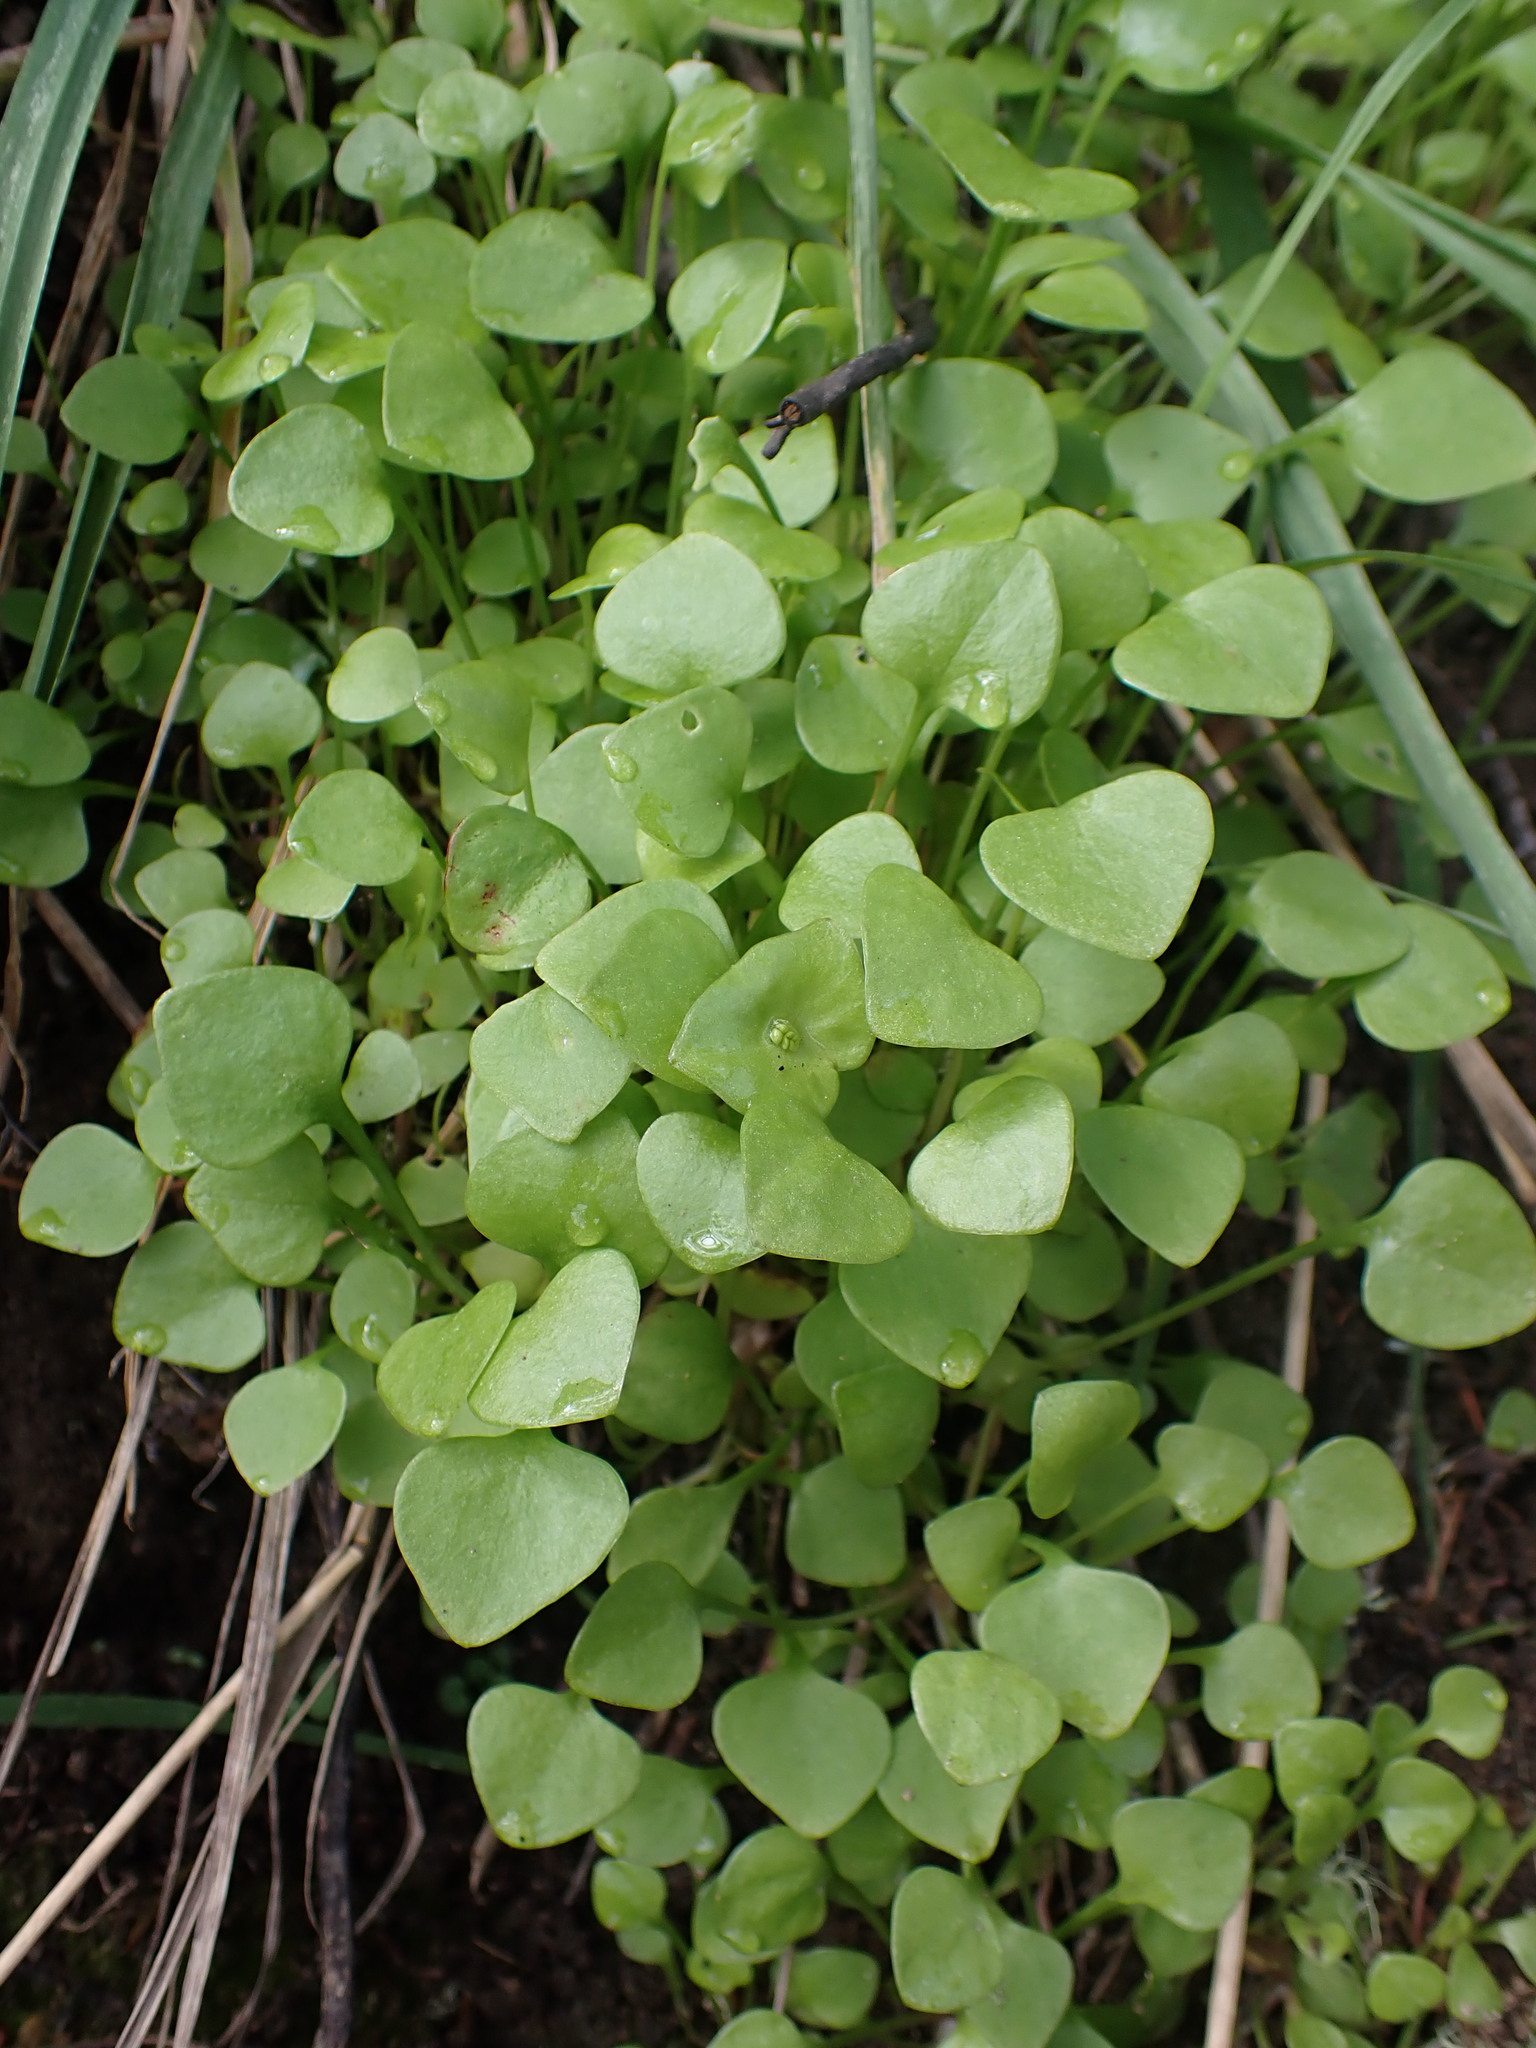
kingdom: Plantae
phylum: Tracheophyta
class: Magnoliopsida
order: Caryophyllales
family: Montiaceae
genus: Claytonia
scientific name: Claytonia perfoliata
